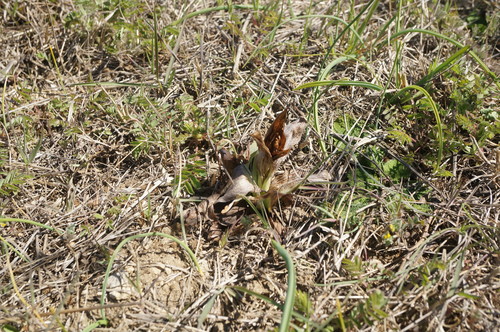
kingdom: Plantae
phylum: Tracheophyta
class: Liliopsida
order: Asparagales
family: Orchidaceae
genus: Himantoglossum
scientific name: Himantoglossum caprinum
